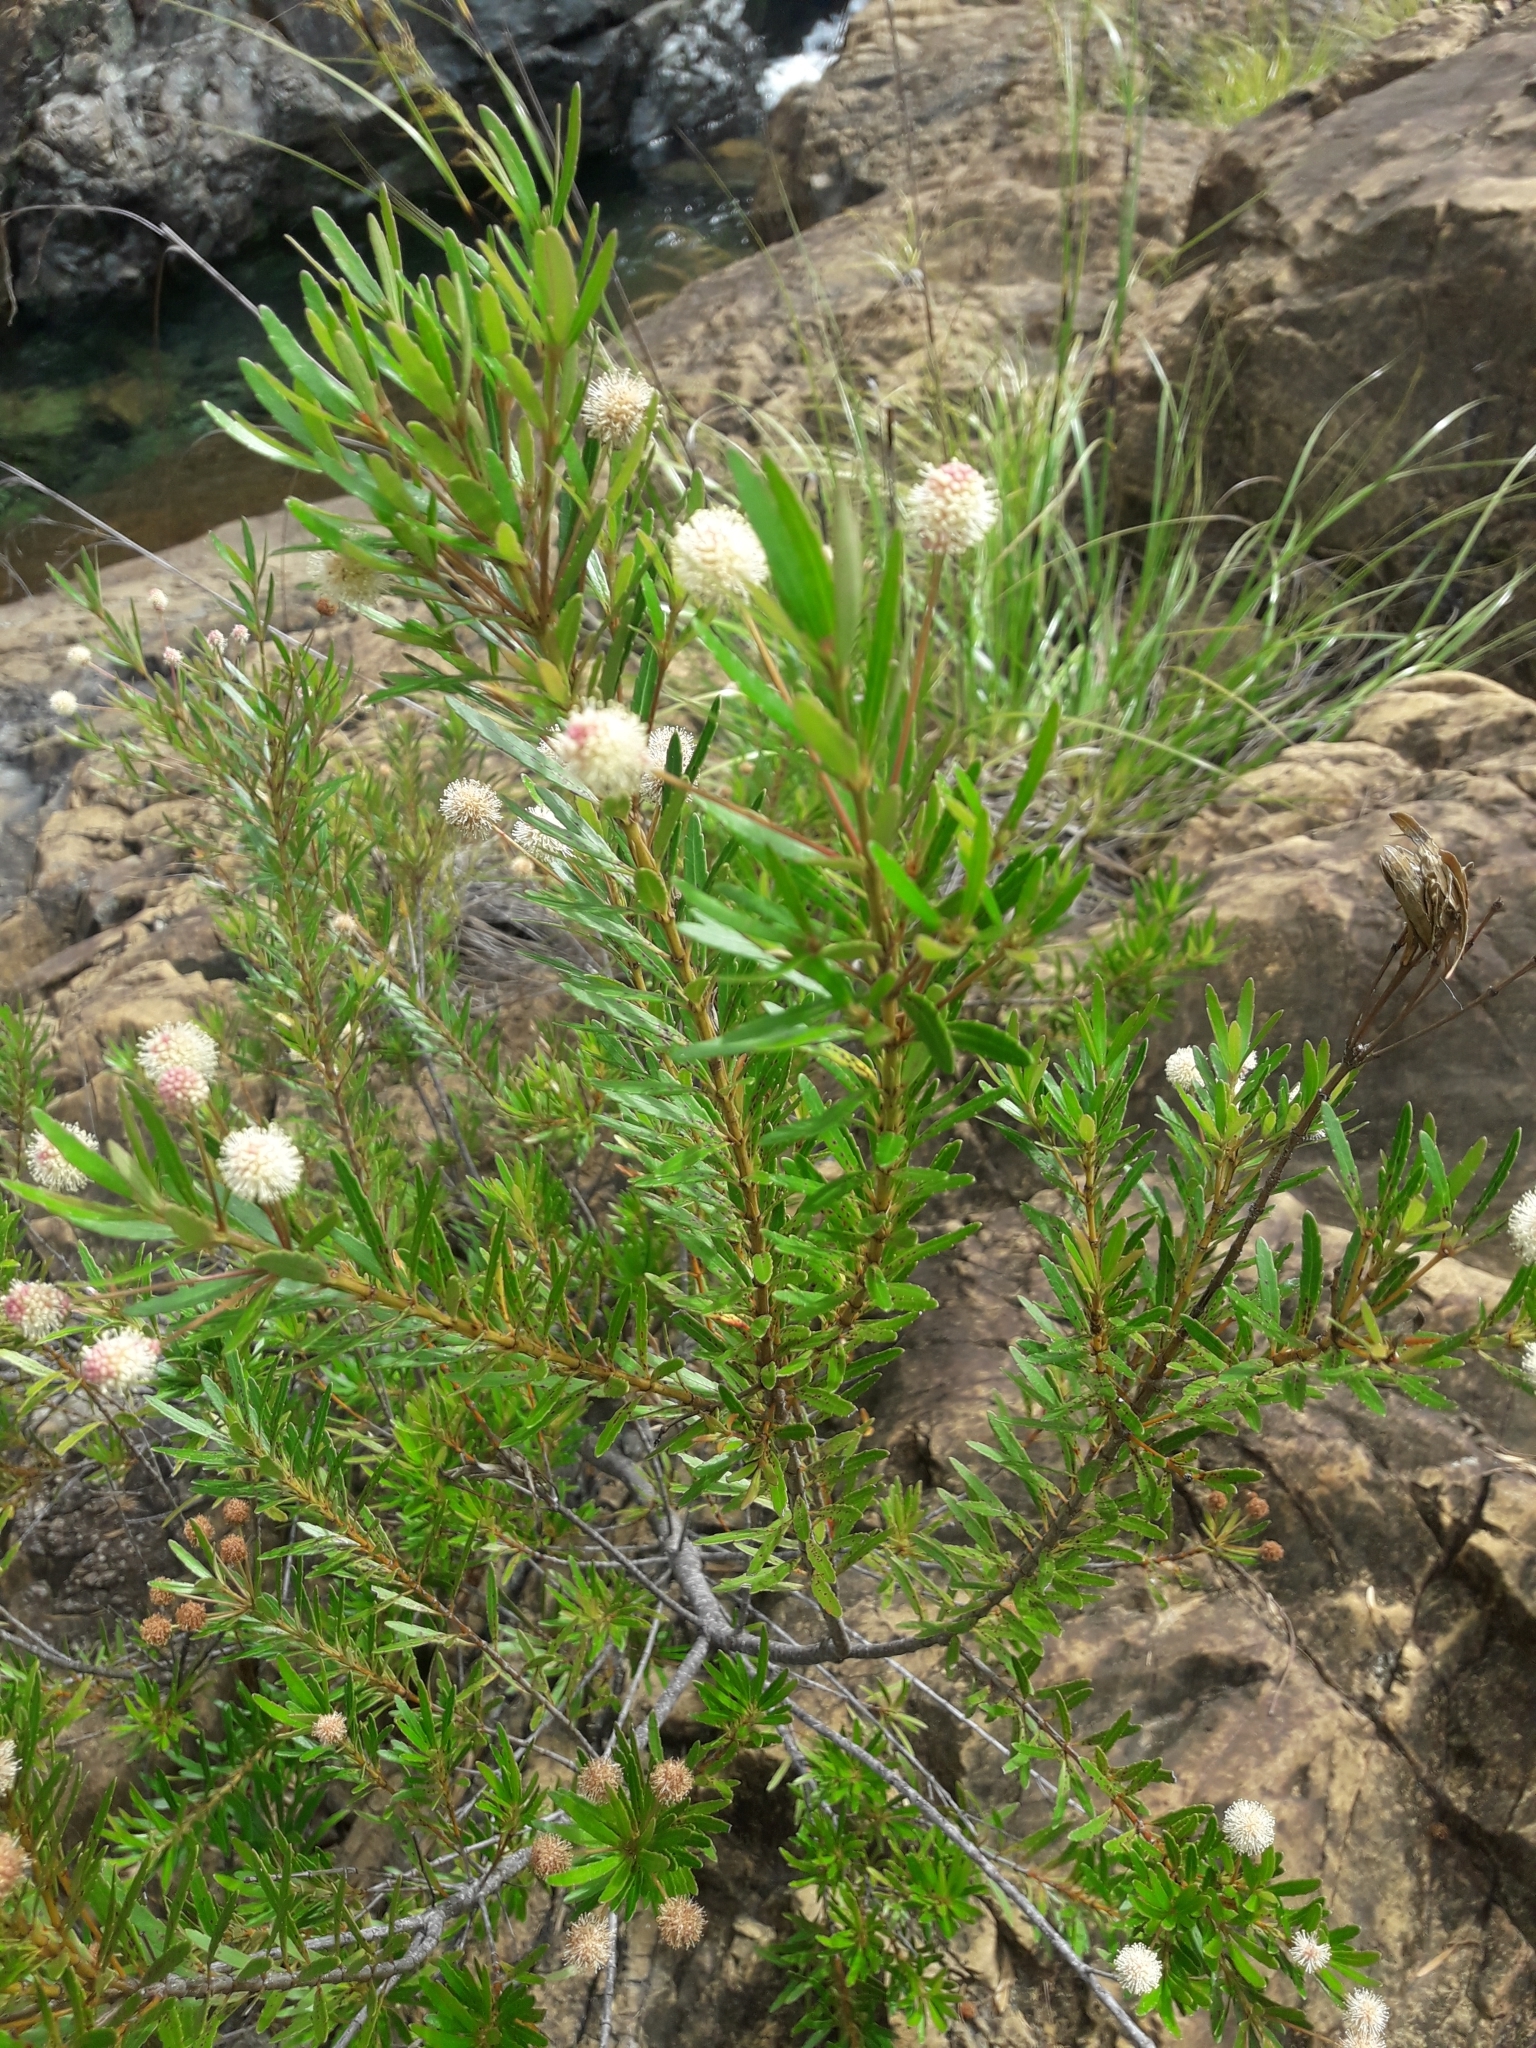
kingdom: Plantae
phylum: Tracheophyta
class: Magnoliopsida
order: Oxalidales
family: Cunoniaceae
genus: Pancheria
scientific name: Pancheria elegans
